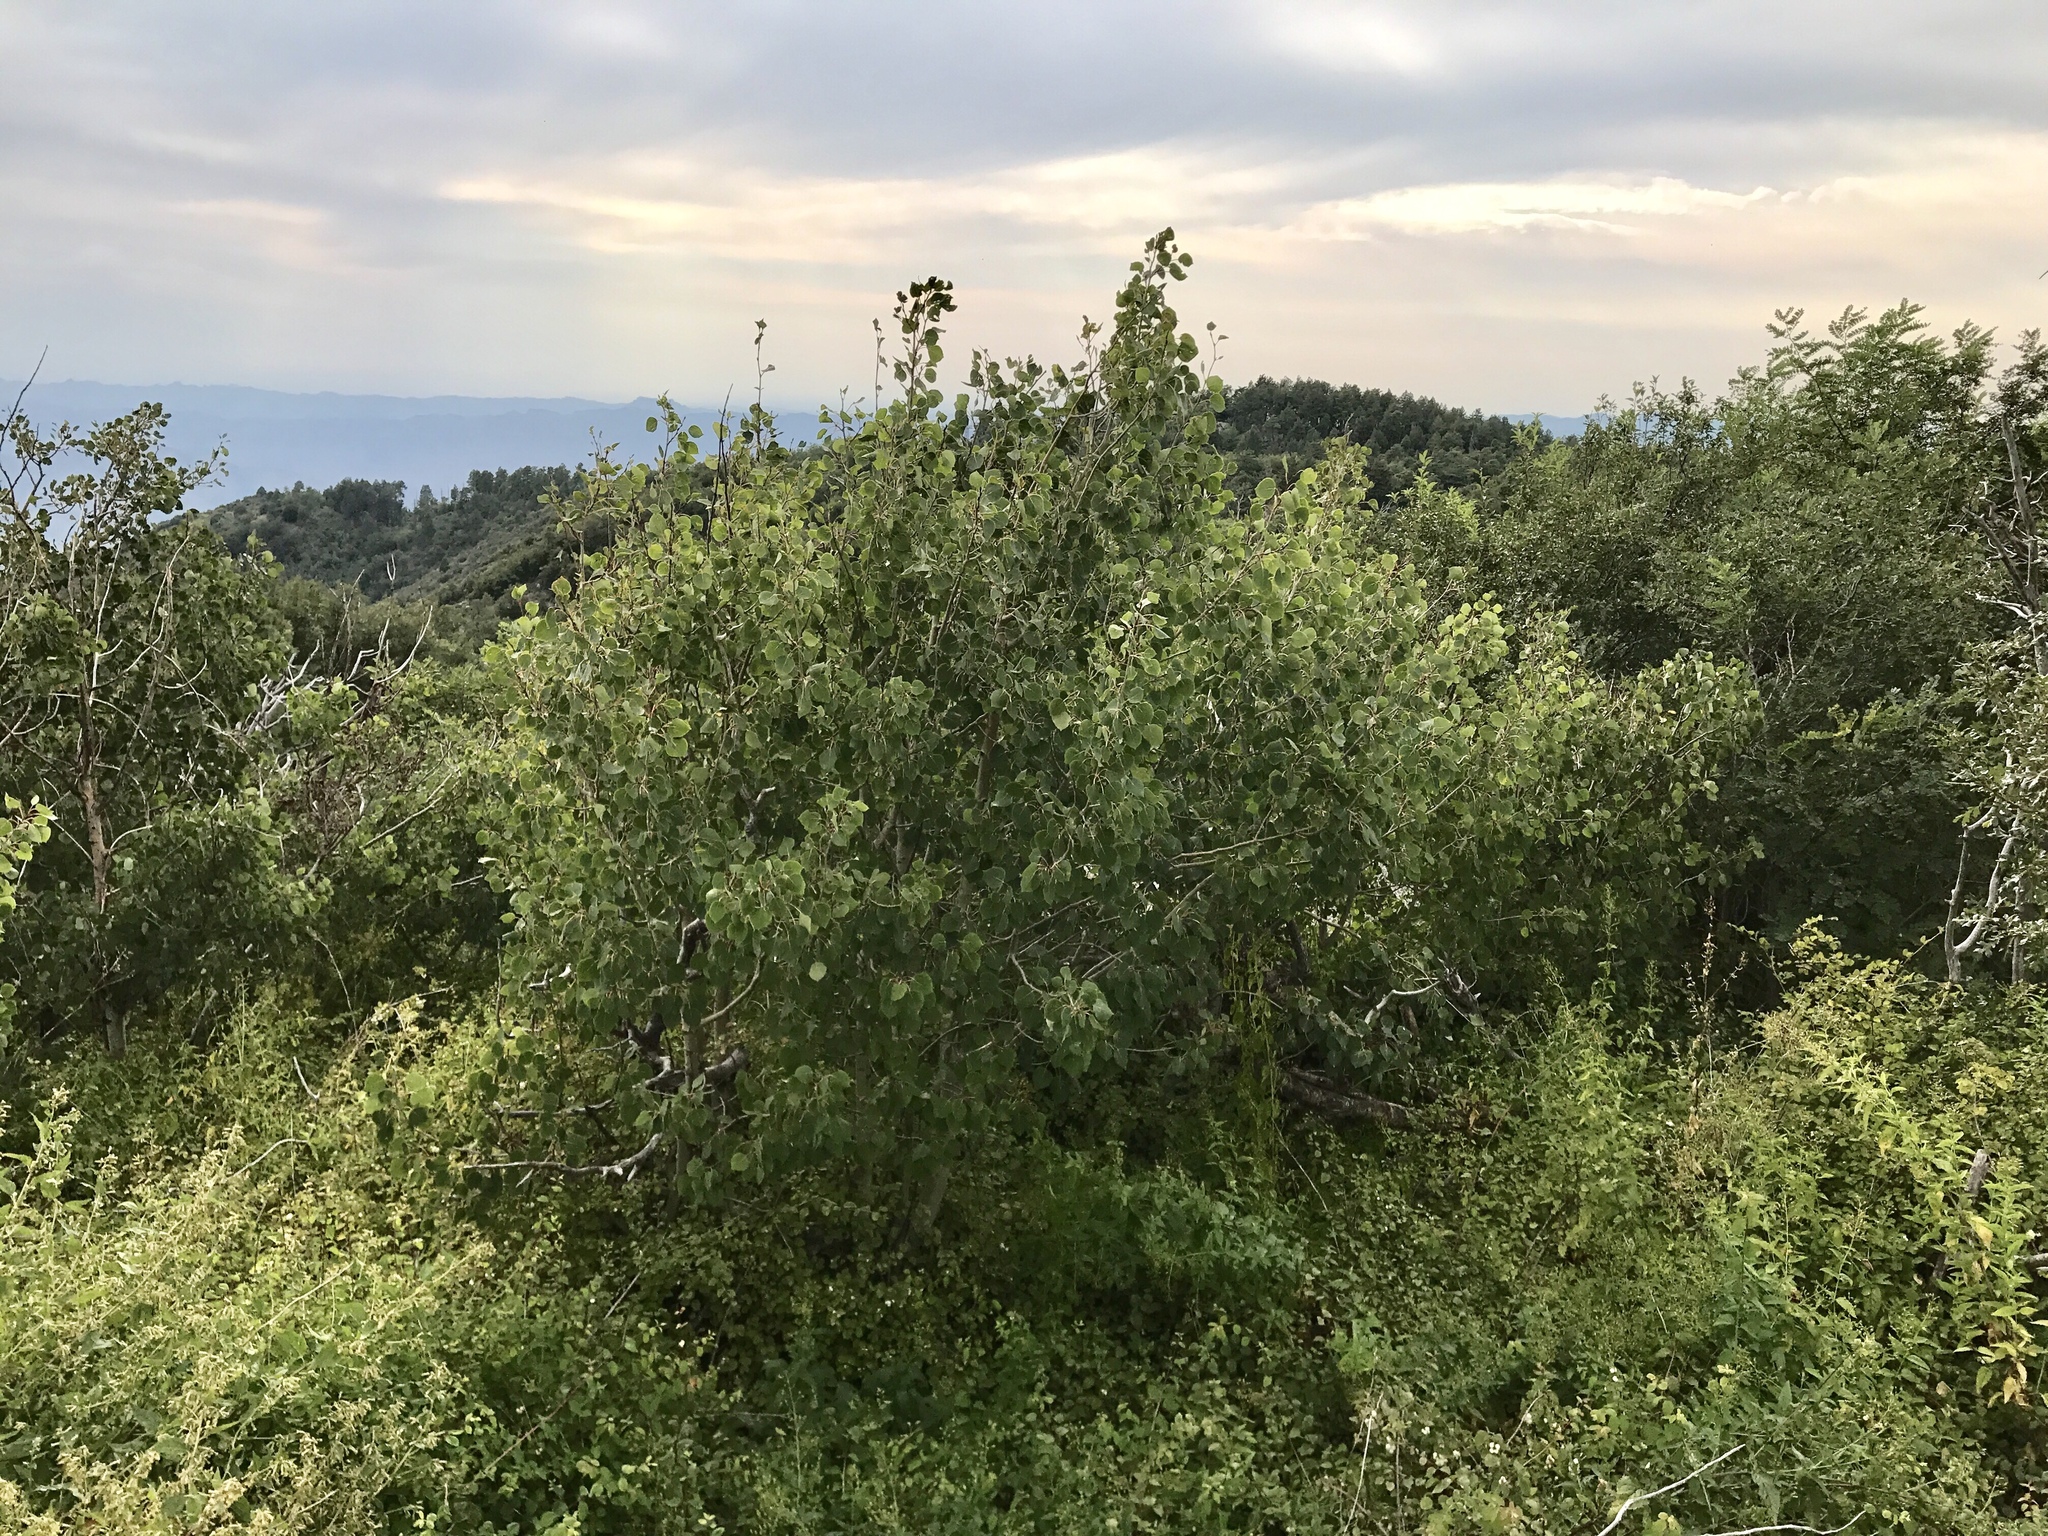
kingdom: Plantae
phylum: Tracheophyta
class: Magnoliopsida
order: Malpighiales
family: Salicaceae
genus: Populus
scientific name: Populus tremuloides
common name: Quaking aspen
